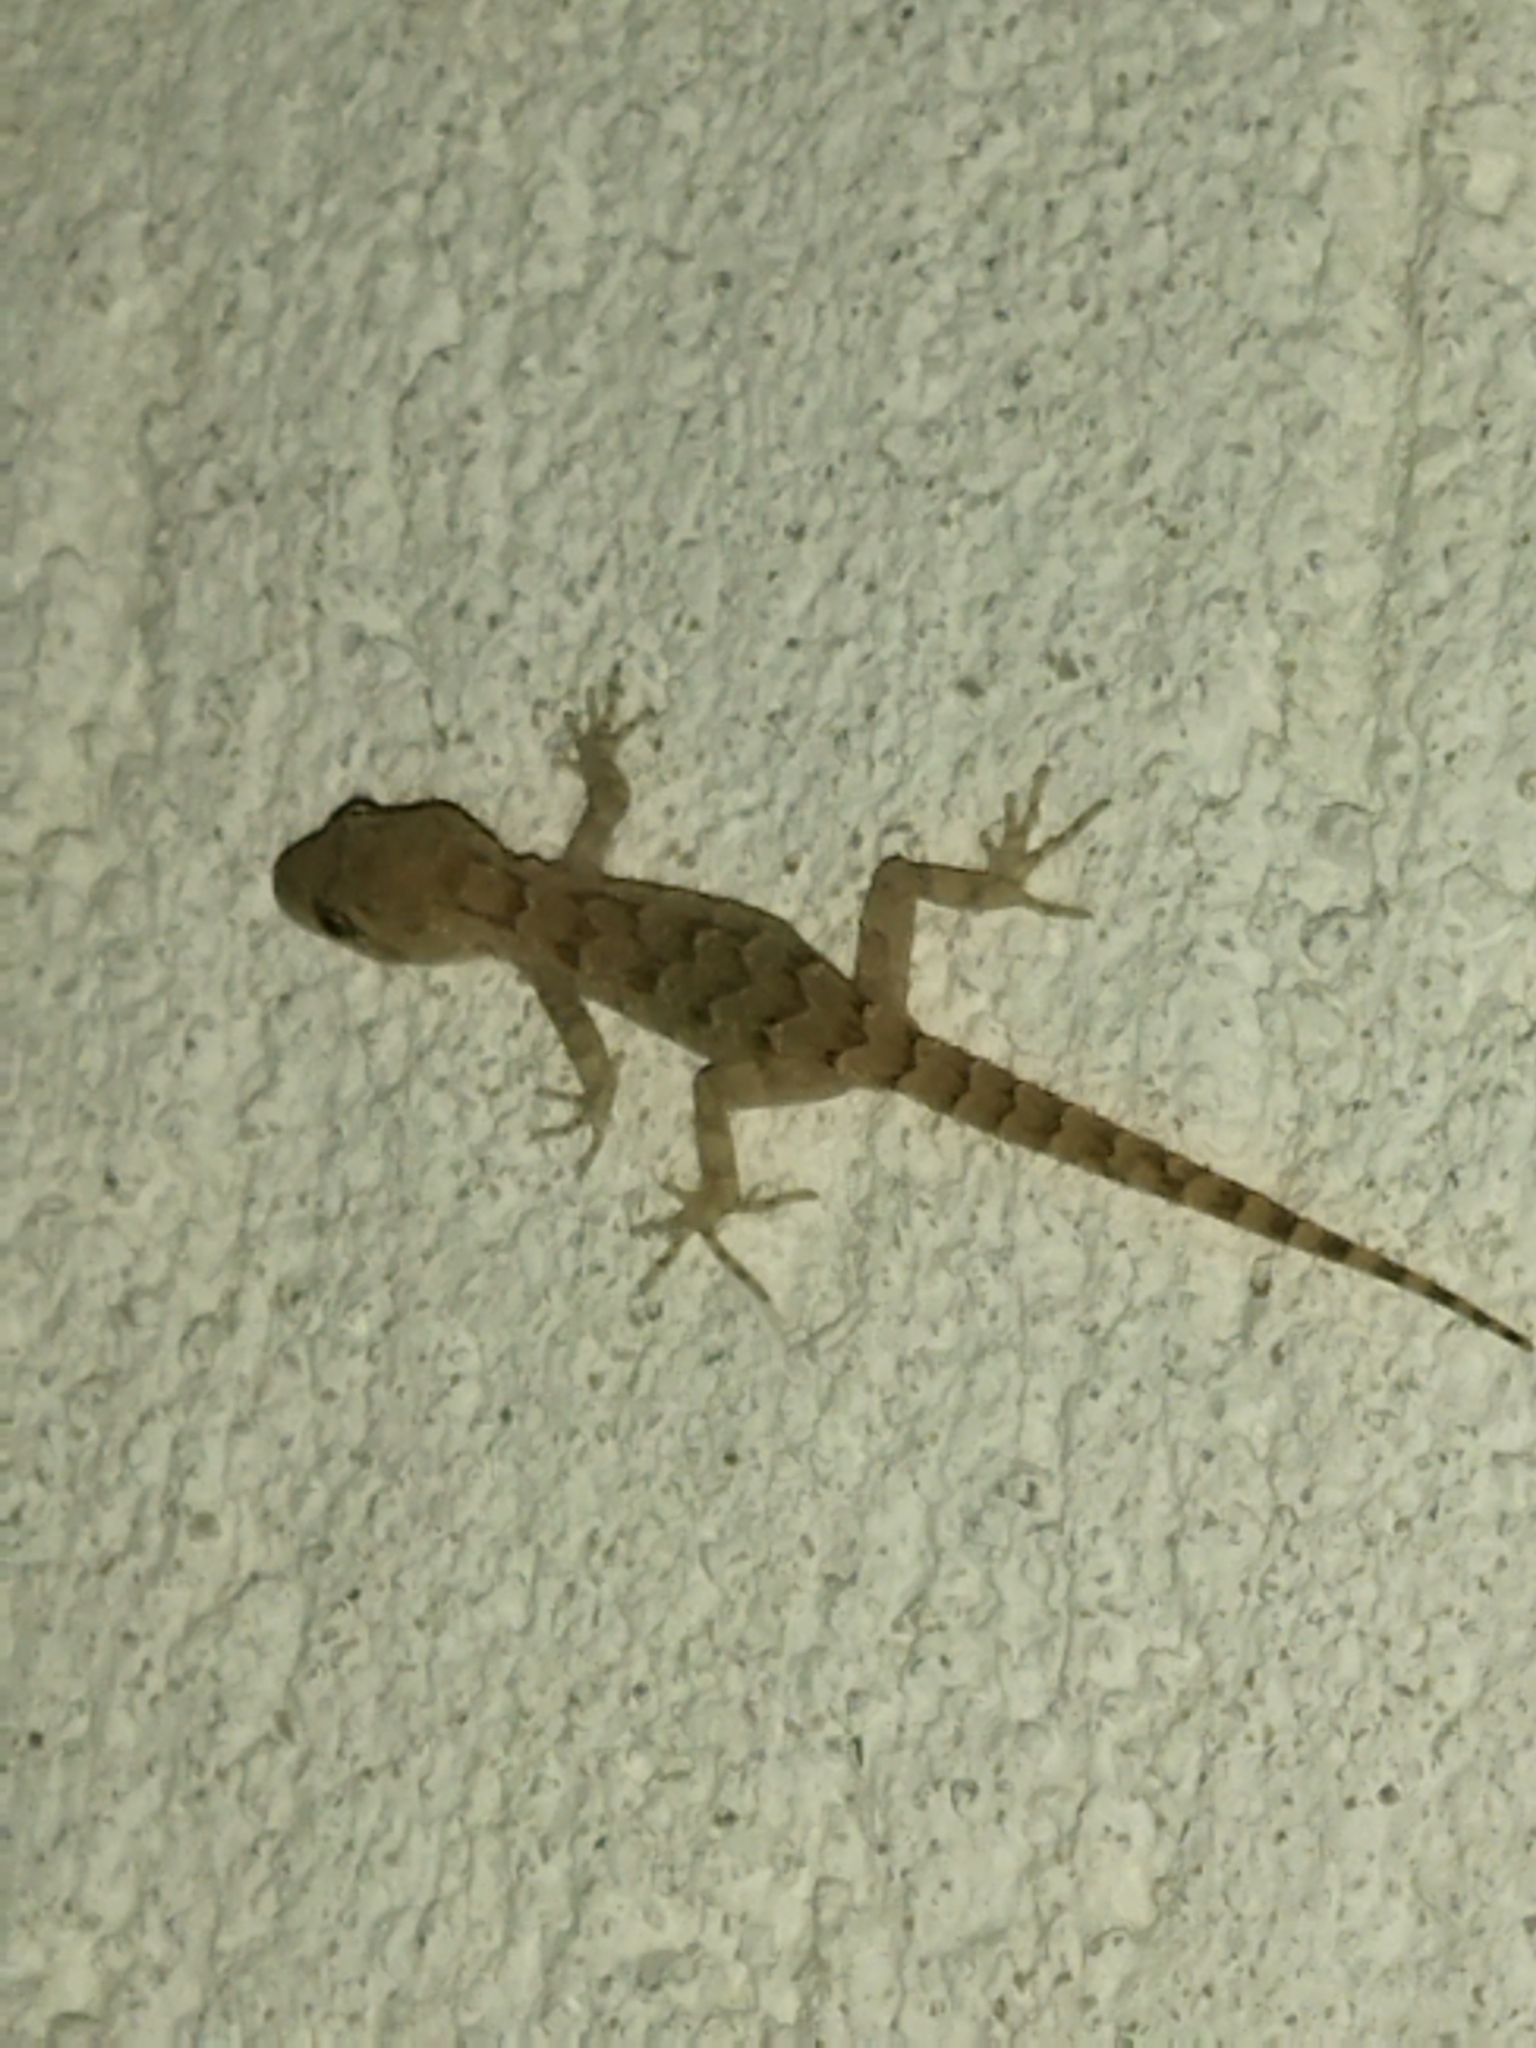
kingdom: Animalia
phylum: Chordata
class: Squamata
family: Gekkonidae
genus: Mediodactylus
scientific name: Mediodactylus kotschyi
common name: Kotschy's gecko
